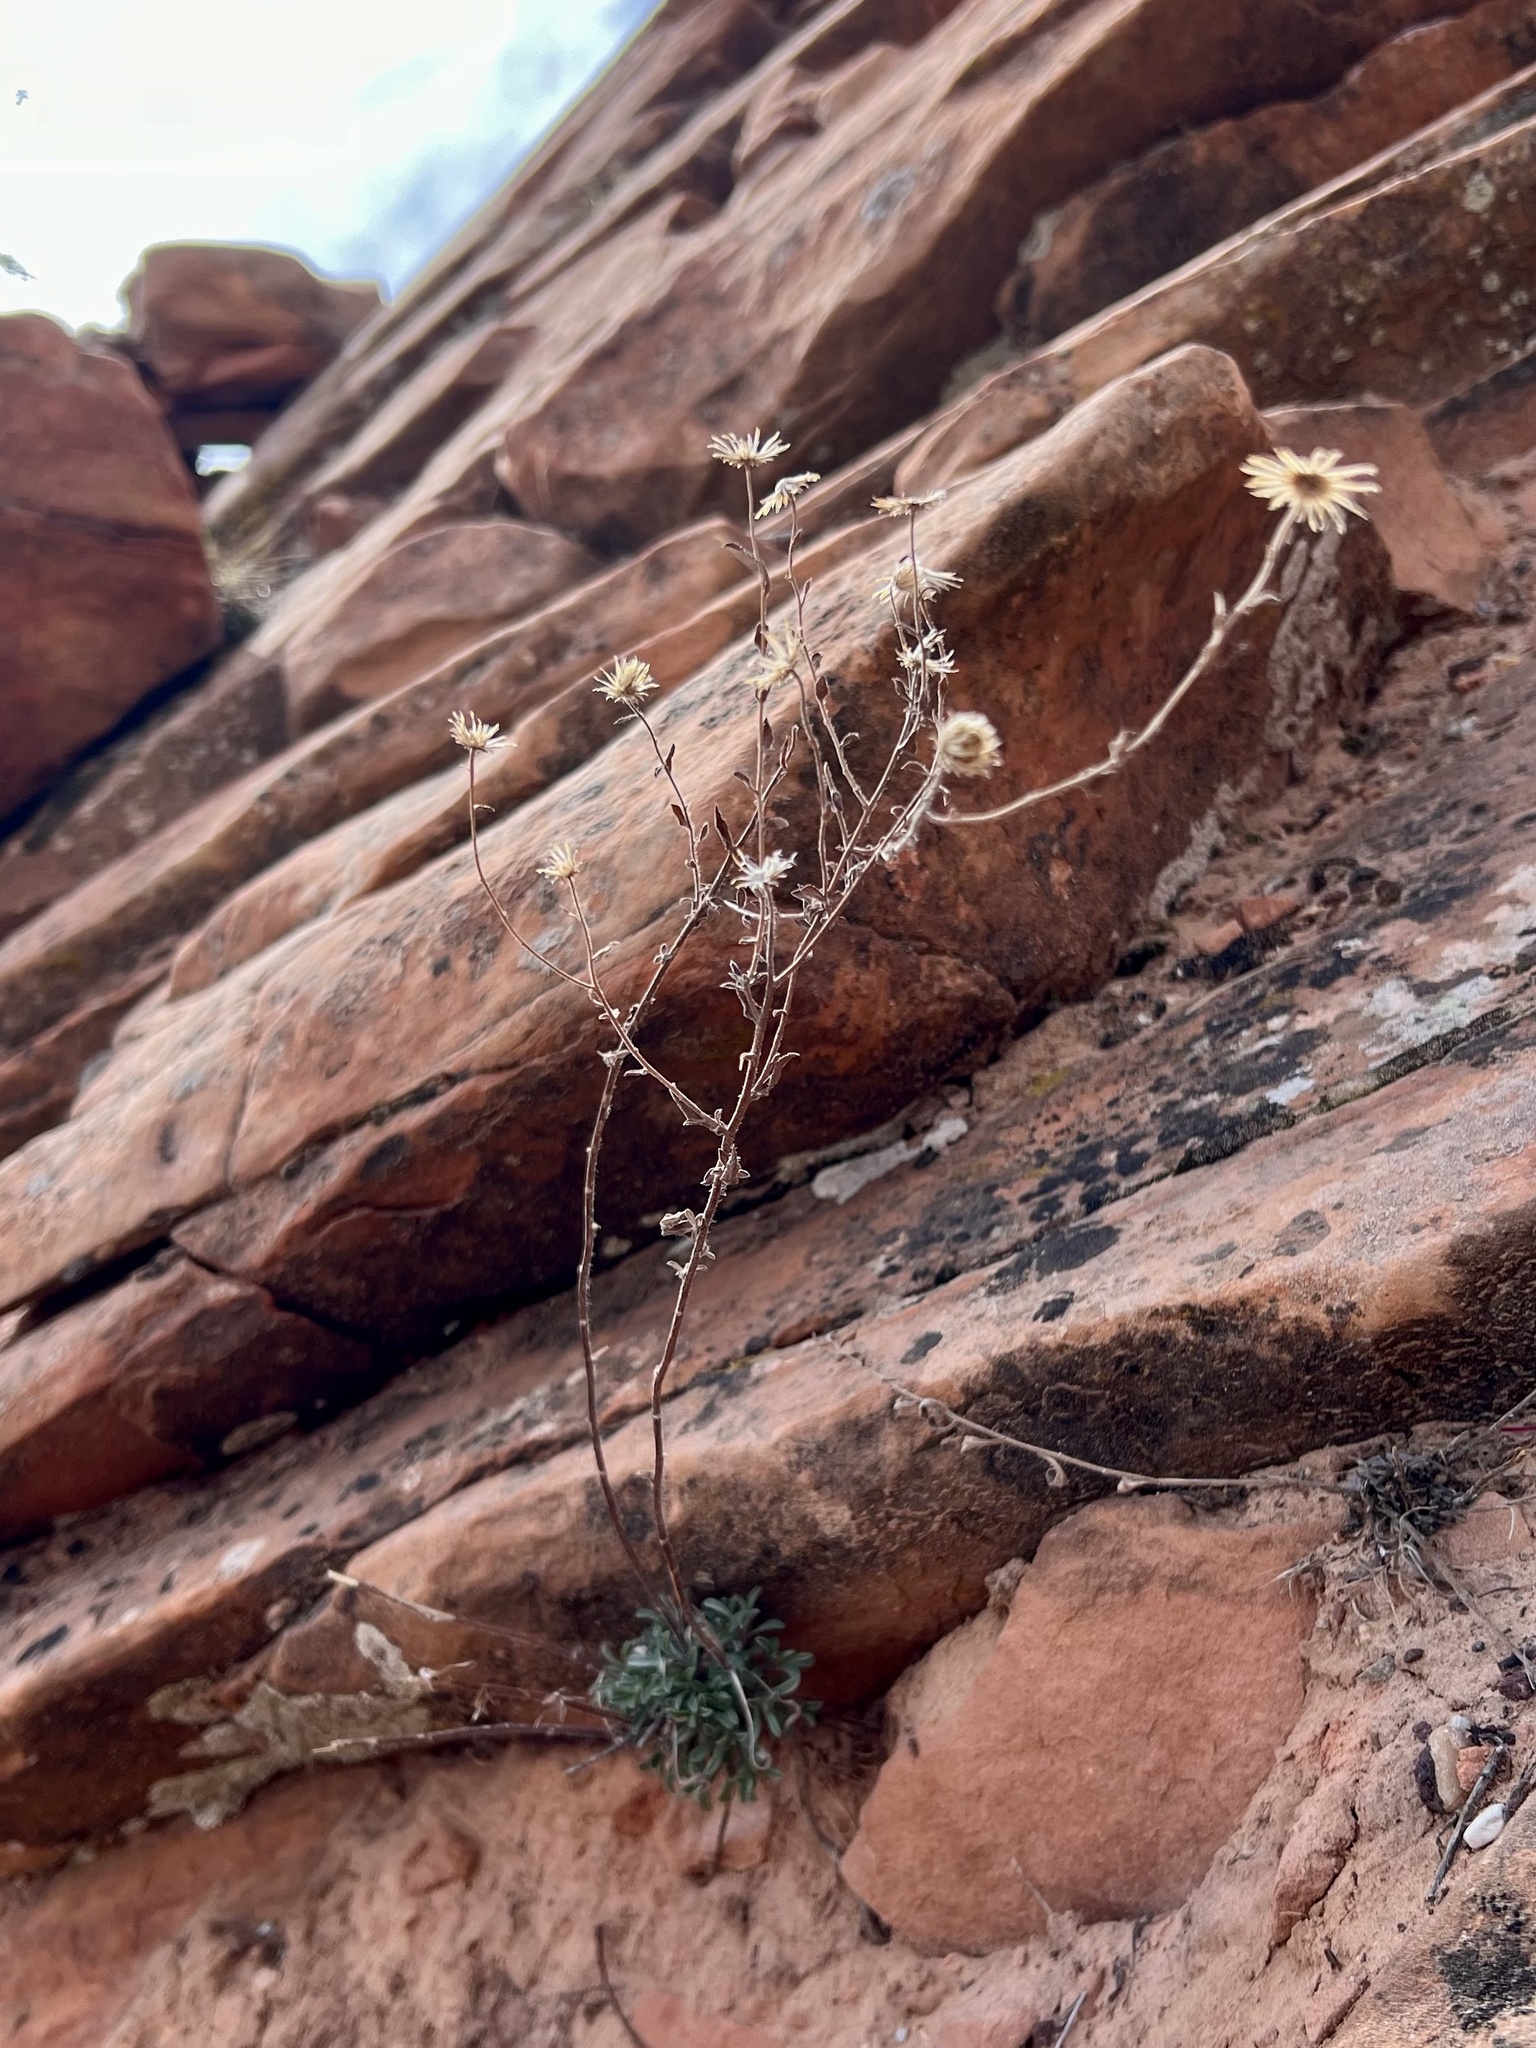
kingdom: Plantae
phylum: Tracheophyta
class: Magnoliopsida
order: Asterales
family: Asteraceae
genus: Heterotheca
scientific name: Heterotheca polothrix
